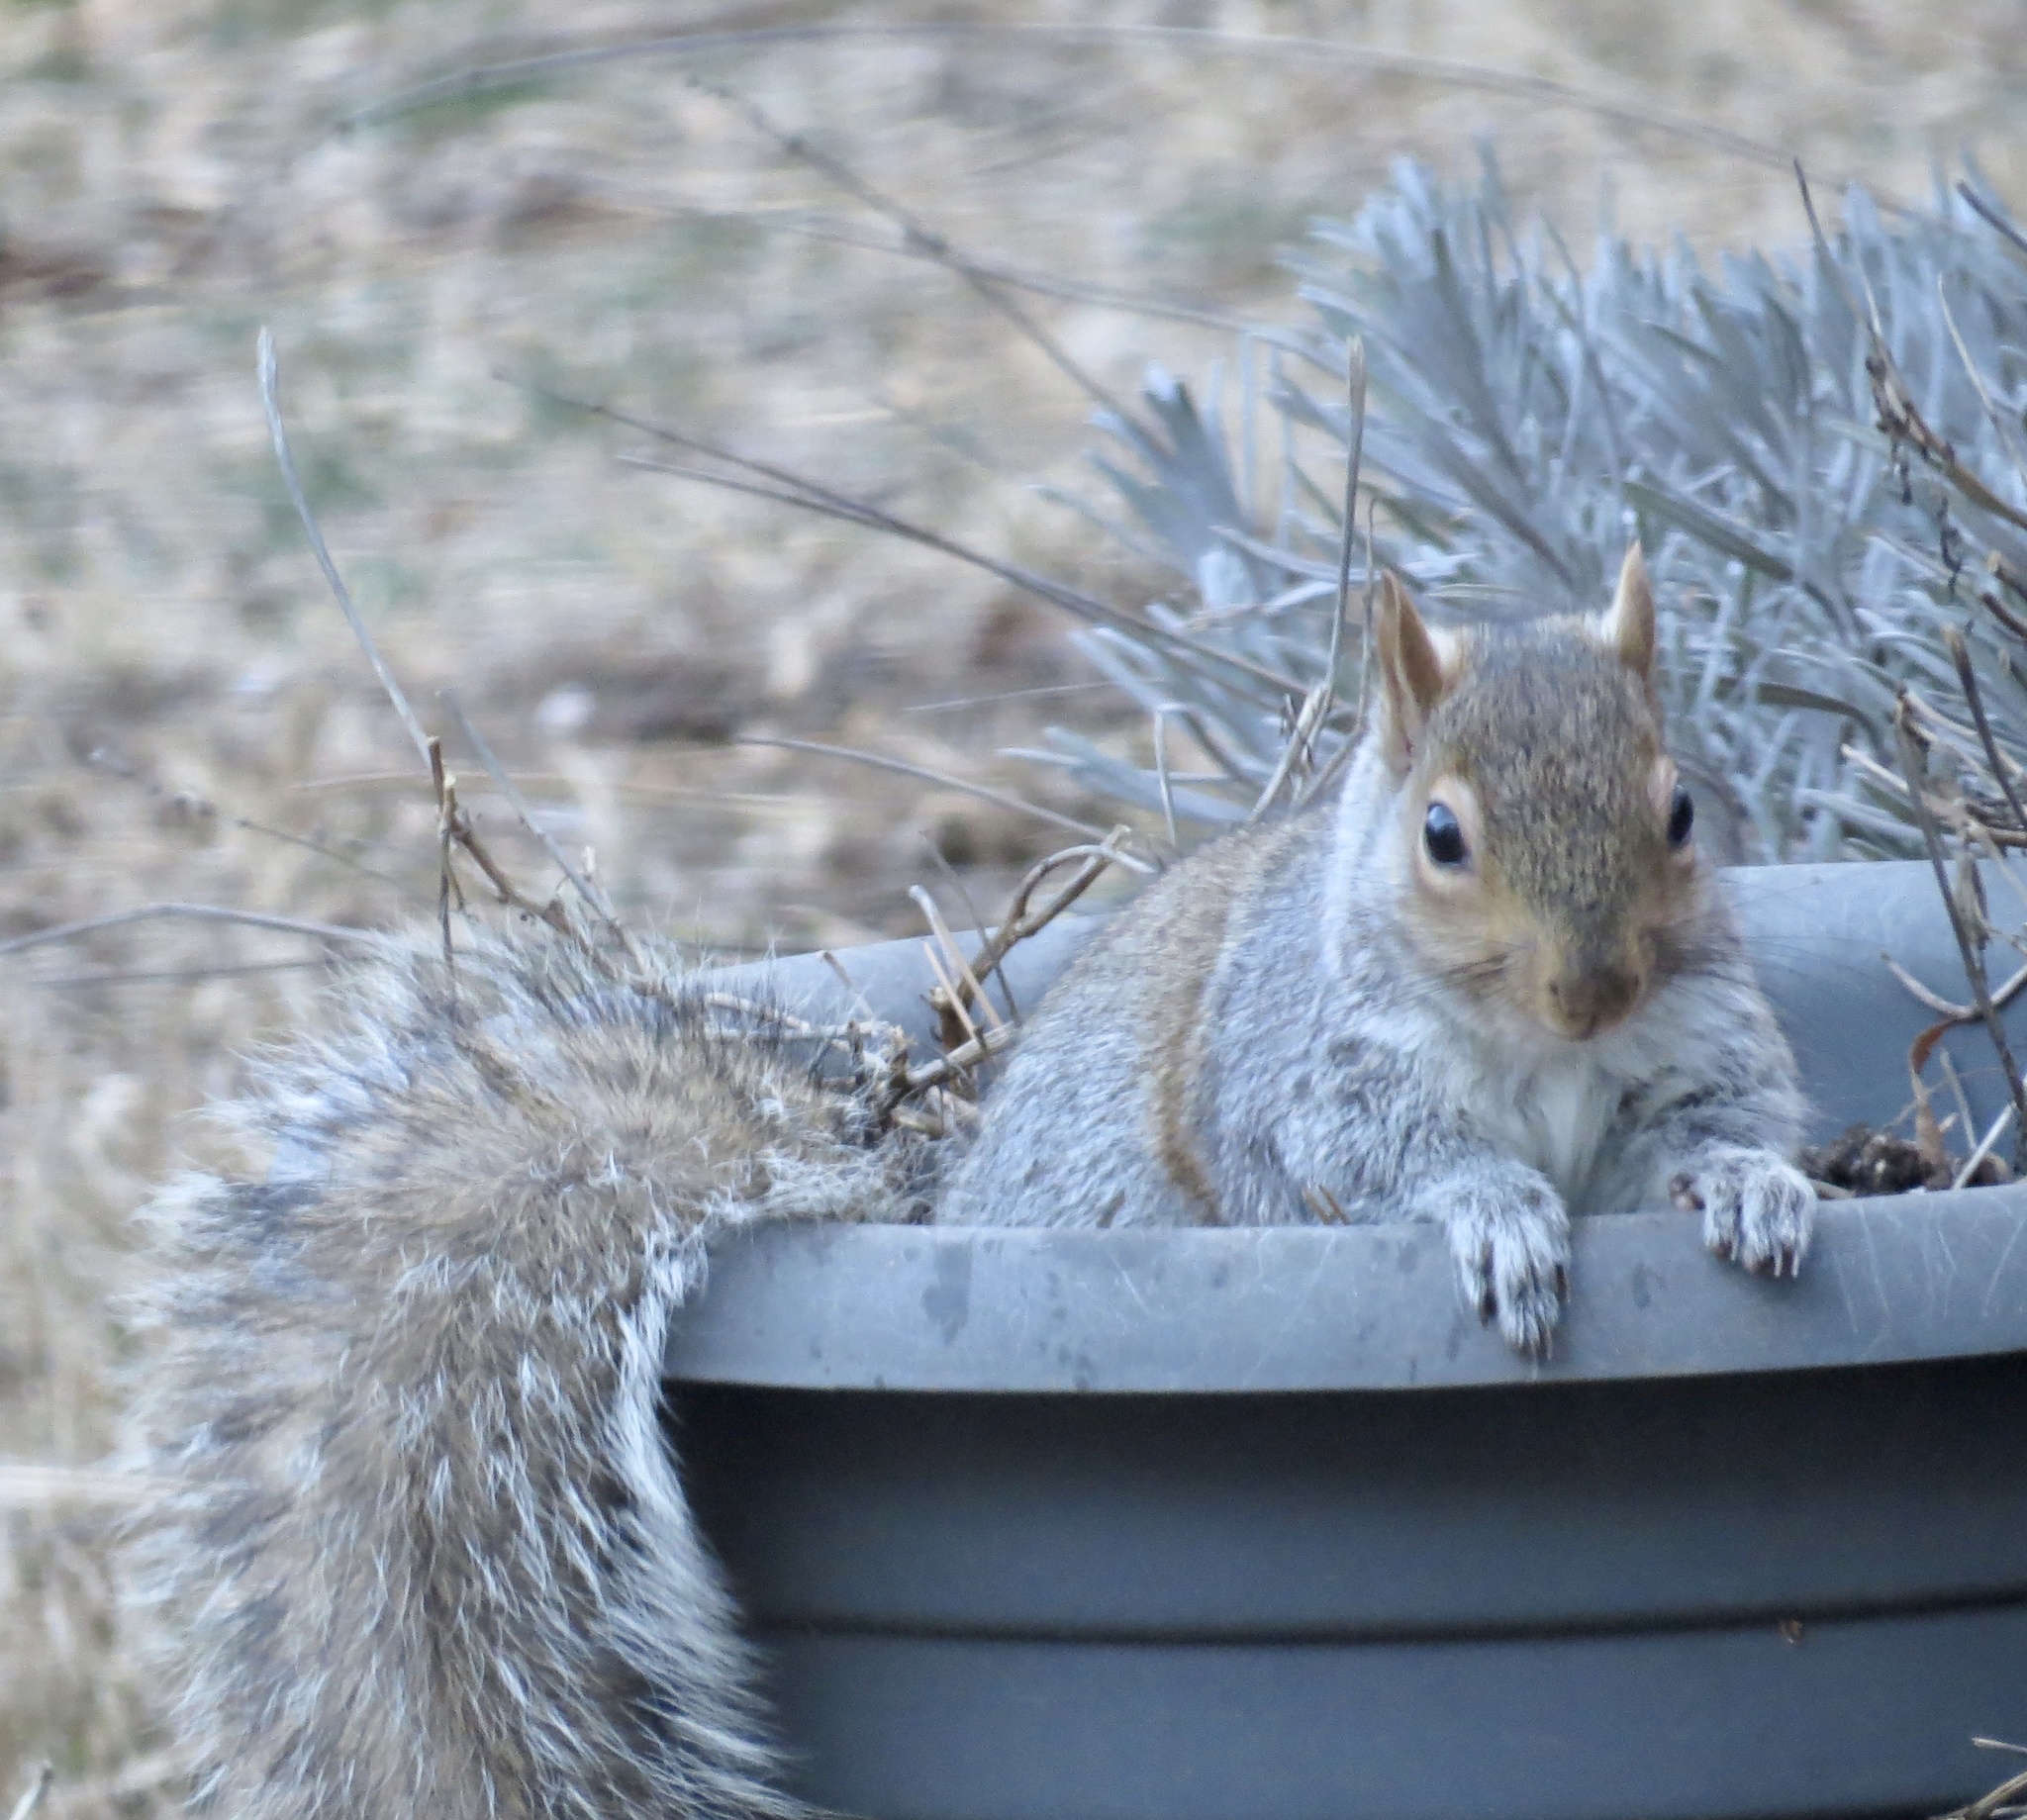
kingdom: Animalia
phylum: Chordata
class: Mammalia
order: Rodentia
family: Sciuridae
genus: Sciurus
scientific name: Sciurus carolinensis
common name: Eastern gray squirrel
